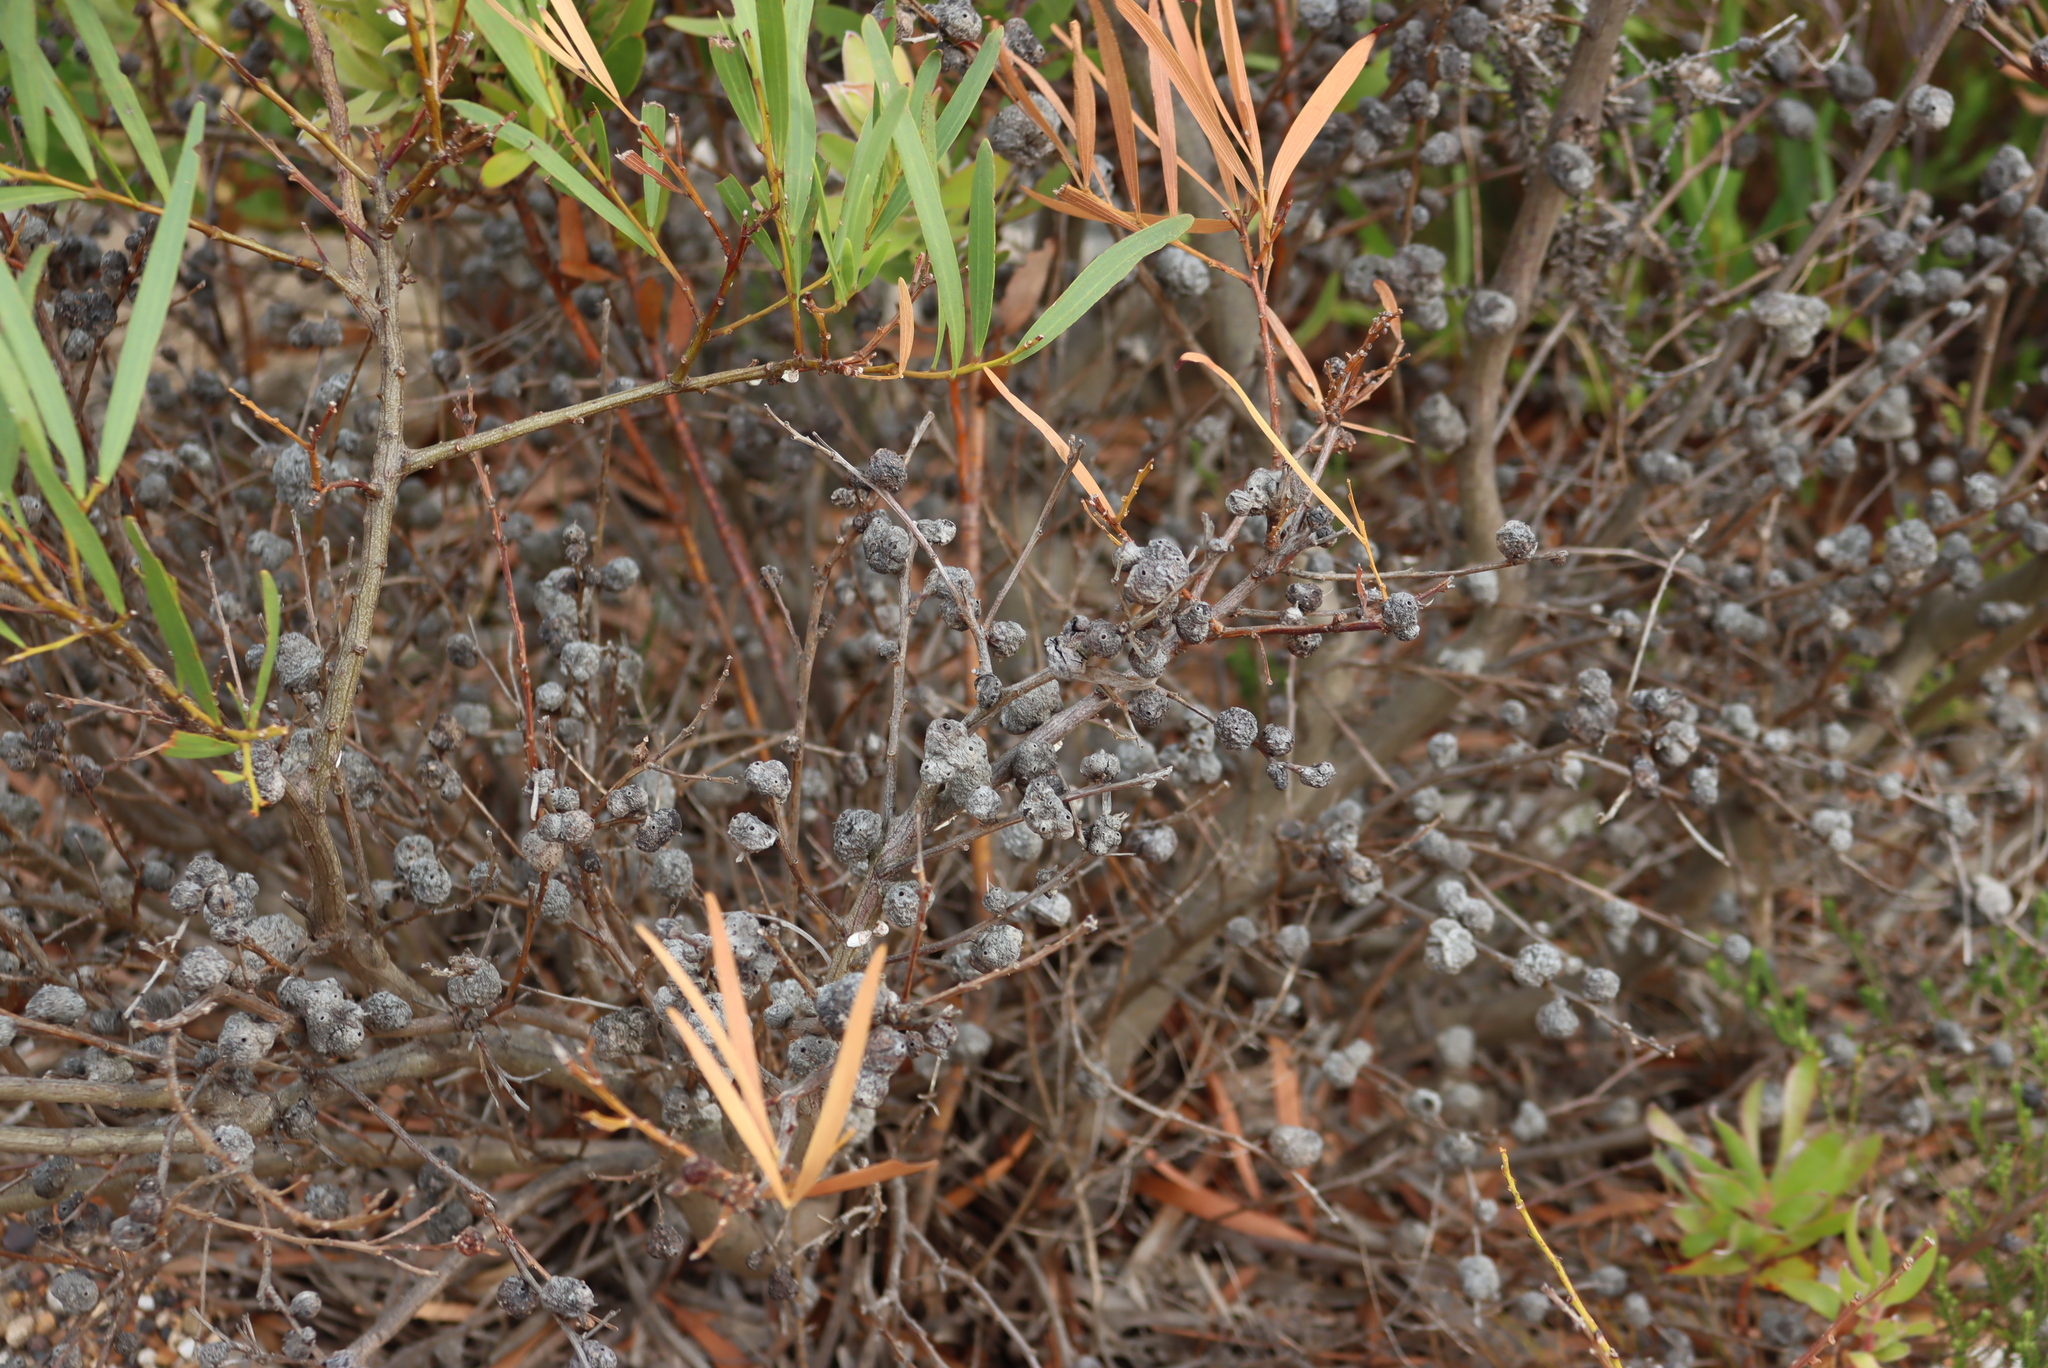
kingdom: Plantae
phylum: Tracheophyta
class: Magnoliopsida
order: Fabales
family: Fabaceae
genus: Acacia
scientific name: Acacia longifolia
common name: Sydney golden wattle
